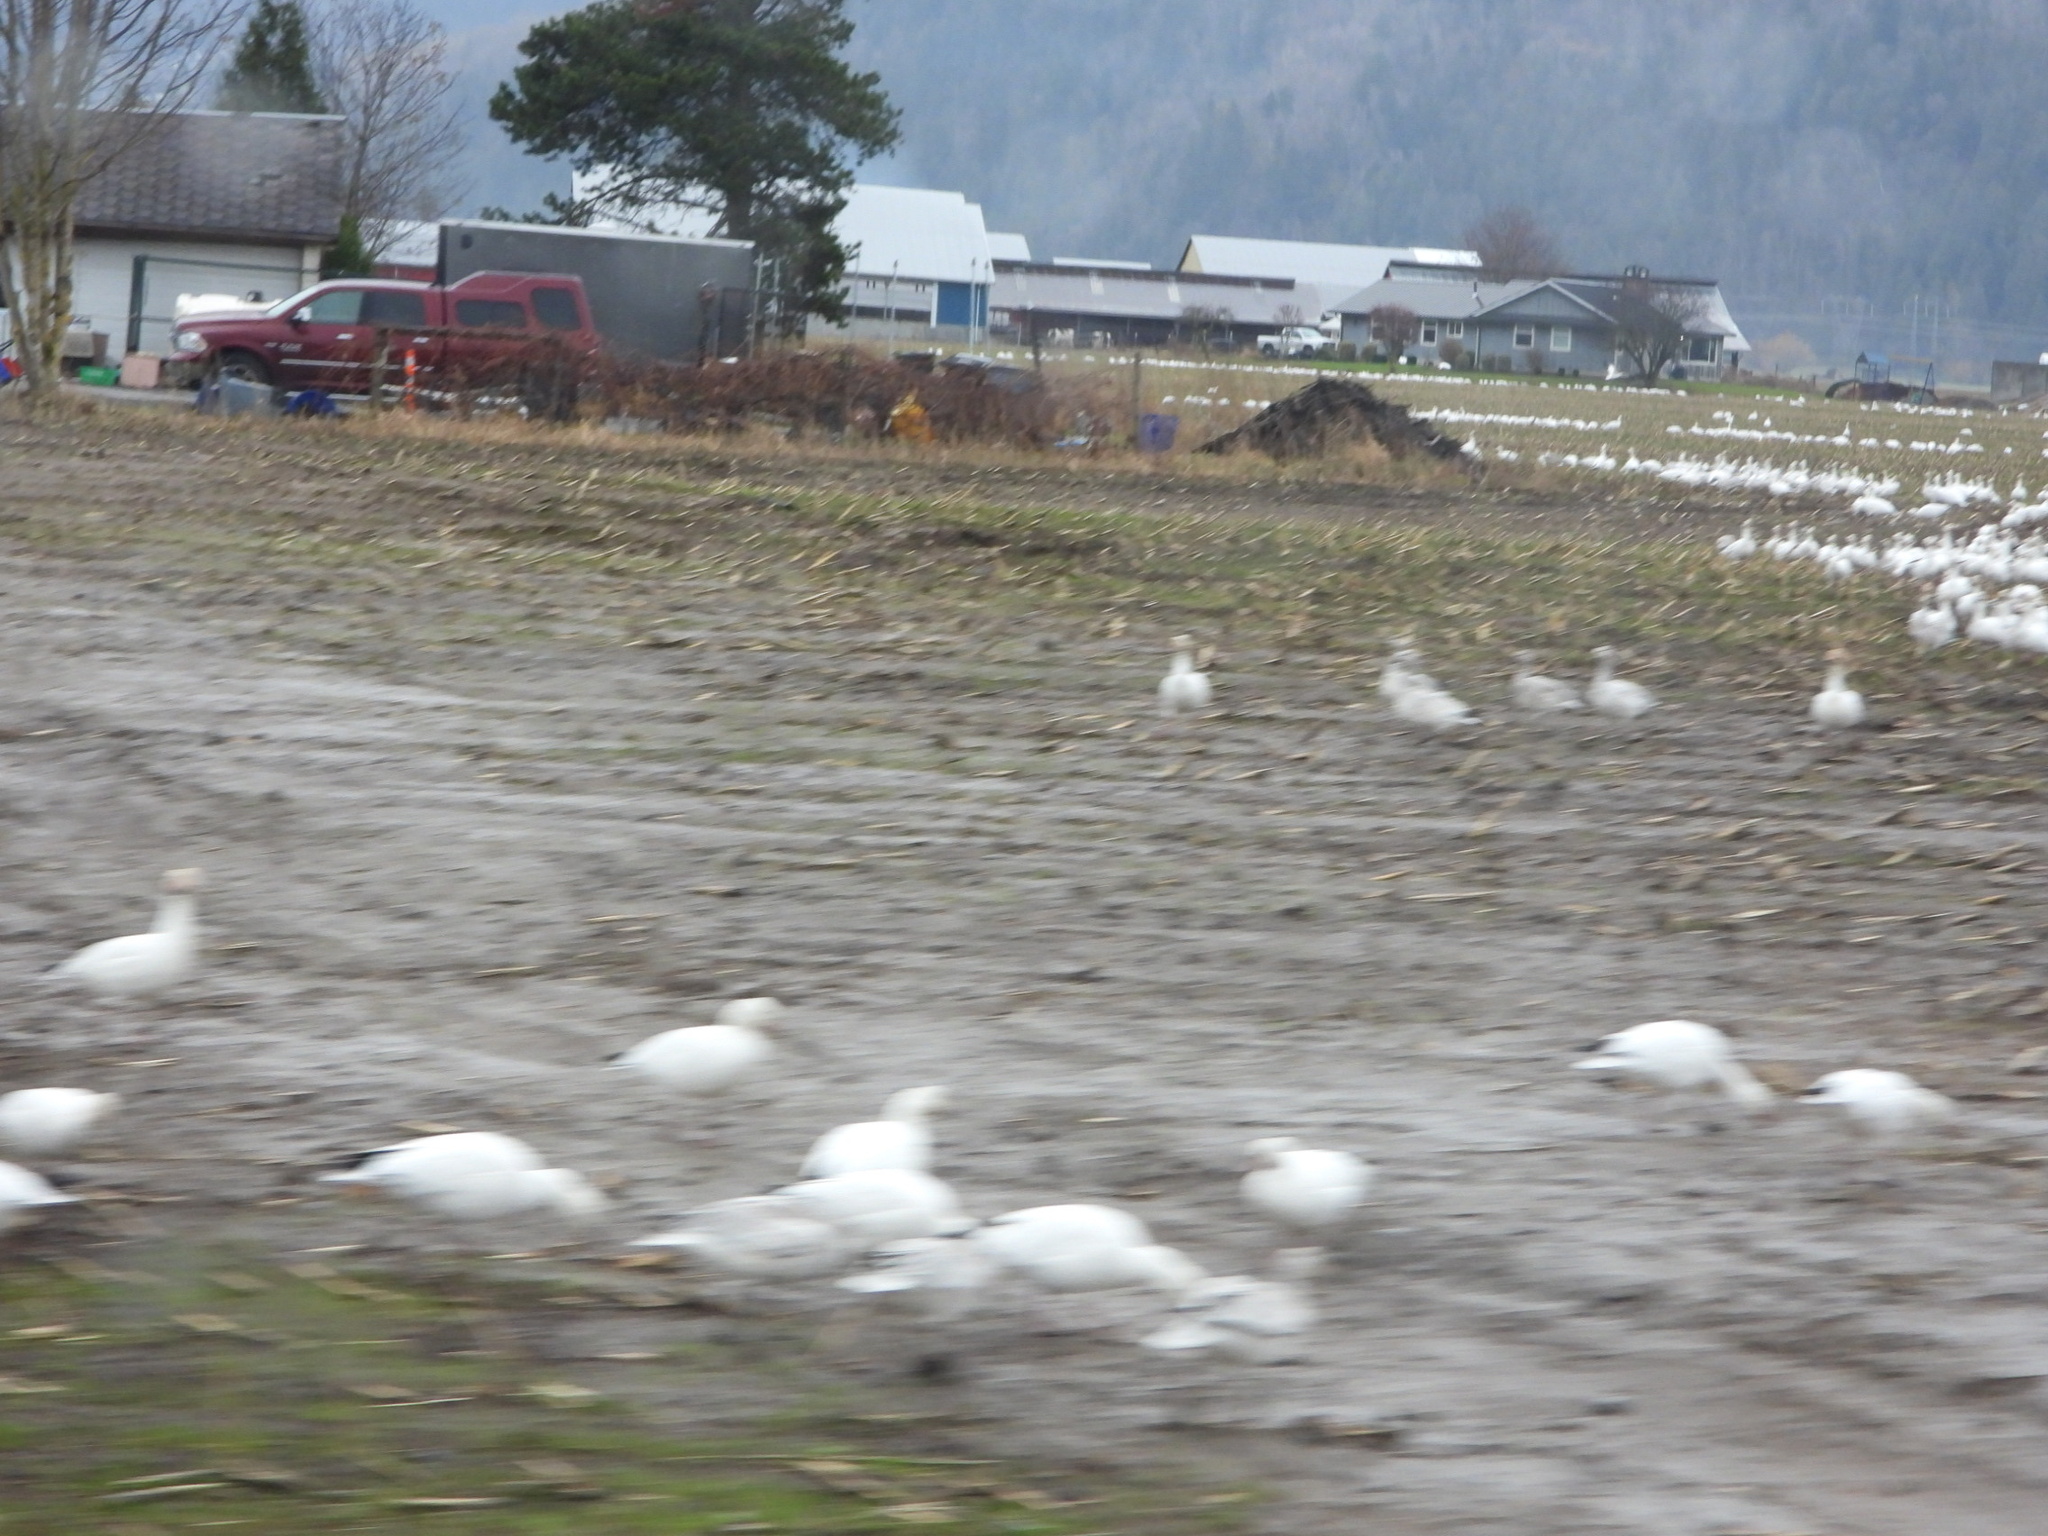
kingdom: Animalia
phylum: Chordata
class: Aves
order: Anseriformes
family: Anatidae
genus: Anser
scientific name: Anser caerulescens
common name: Snow goose
